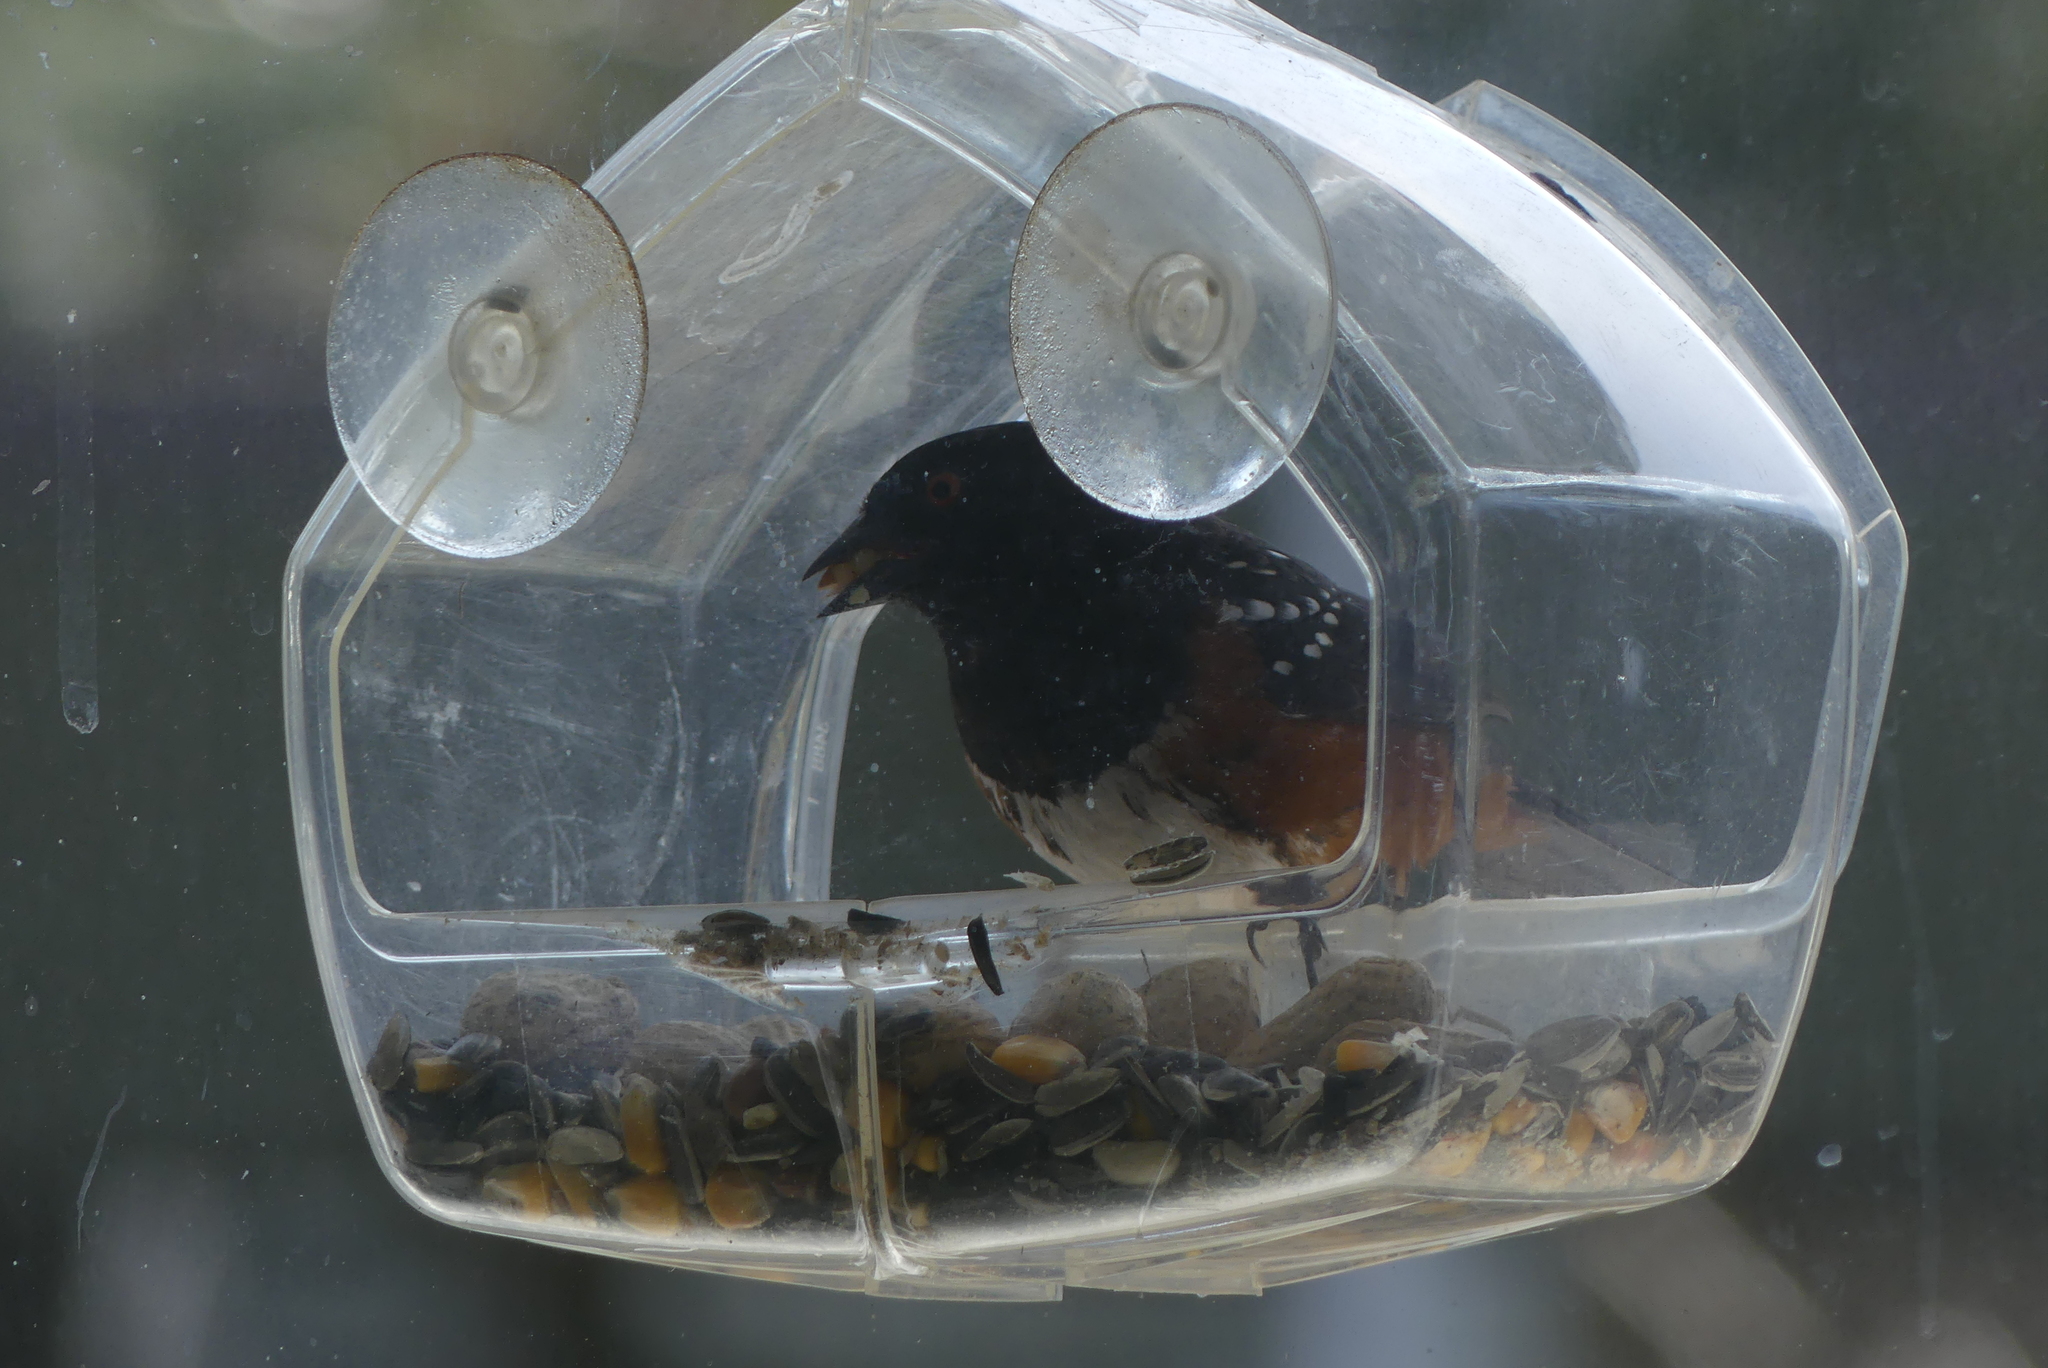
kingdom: Animalia
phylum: Chordata
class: Aves
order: Passeriformes
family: Passerellidae
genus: Pipilo
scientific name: Pipilo maculatus
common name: Spotted towhee
